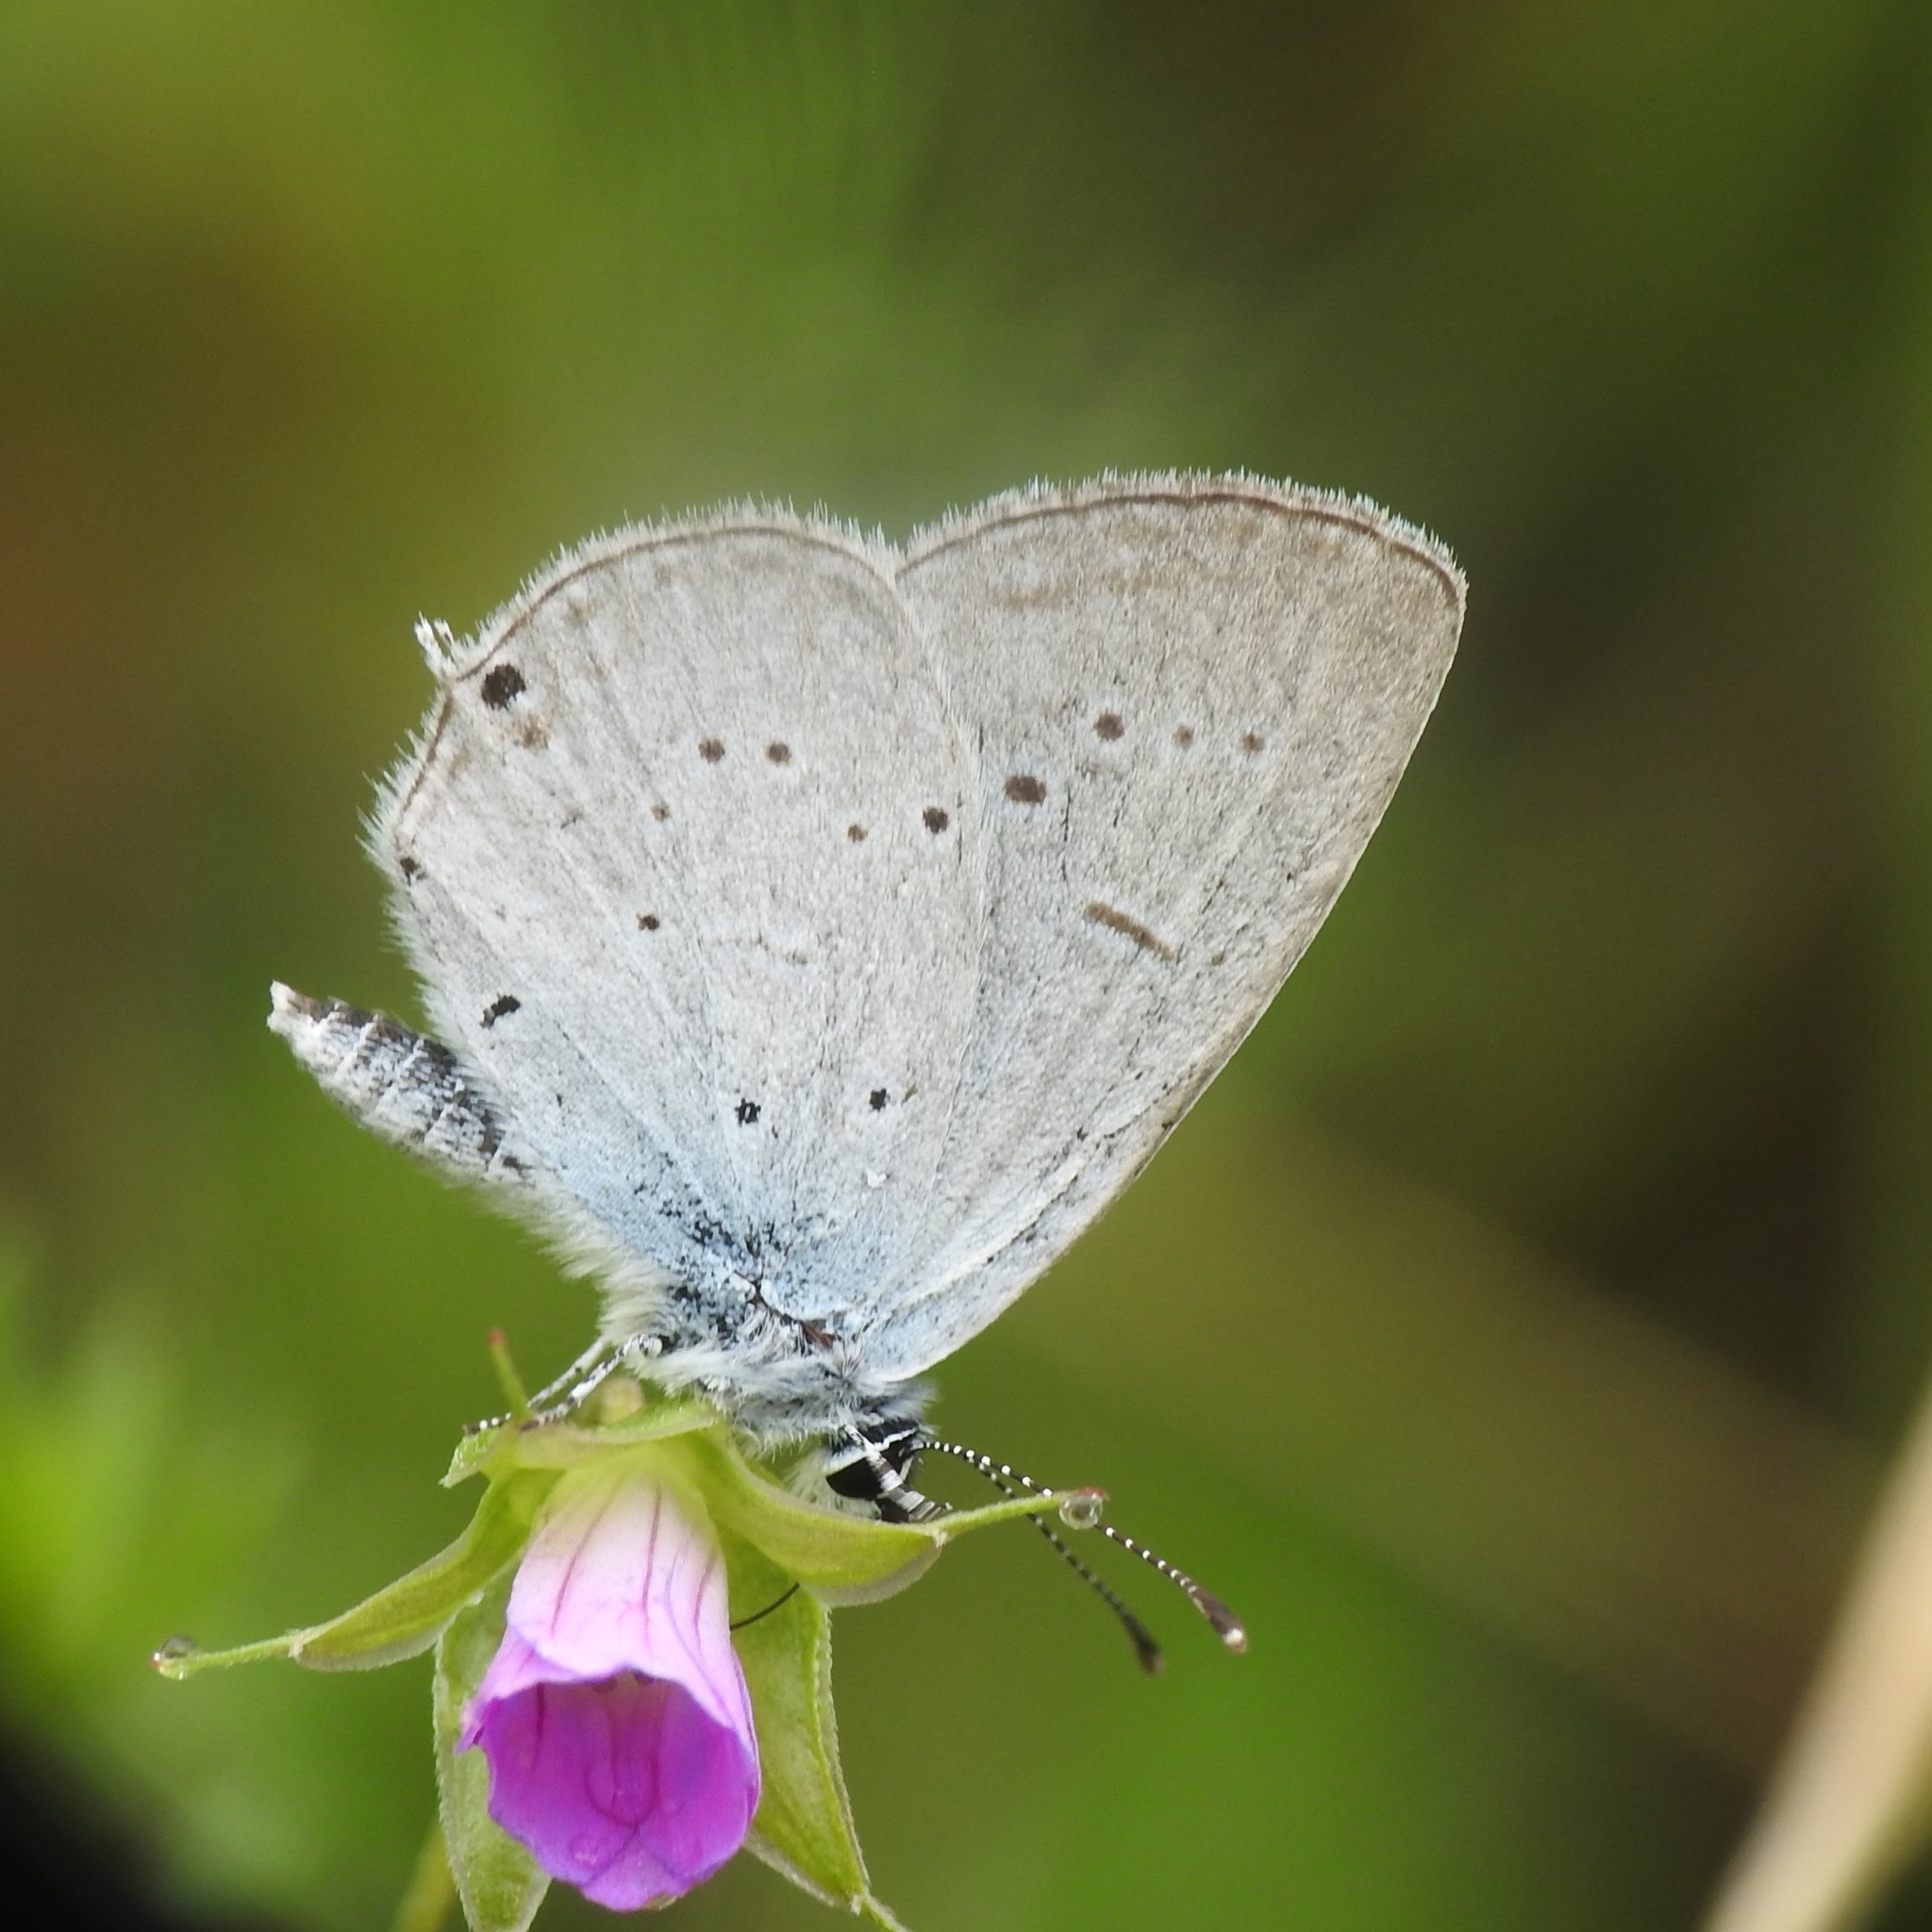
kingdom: Animalia
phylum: Arthropoda
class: Insecta
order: Lepidoptera
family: Lycaenidae
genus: Elkalyce
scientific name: Elkalyce alcetas
